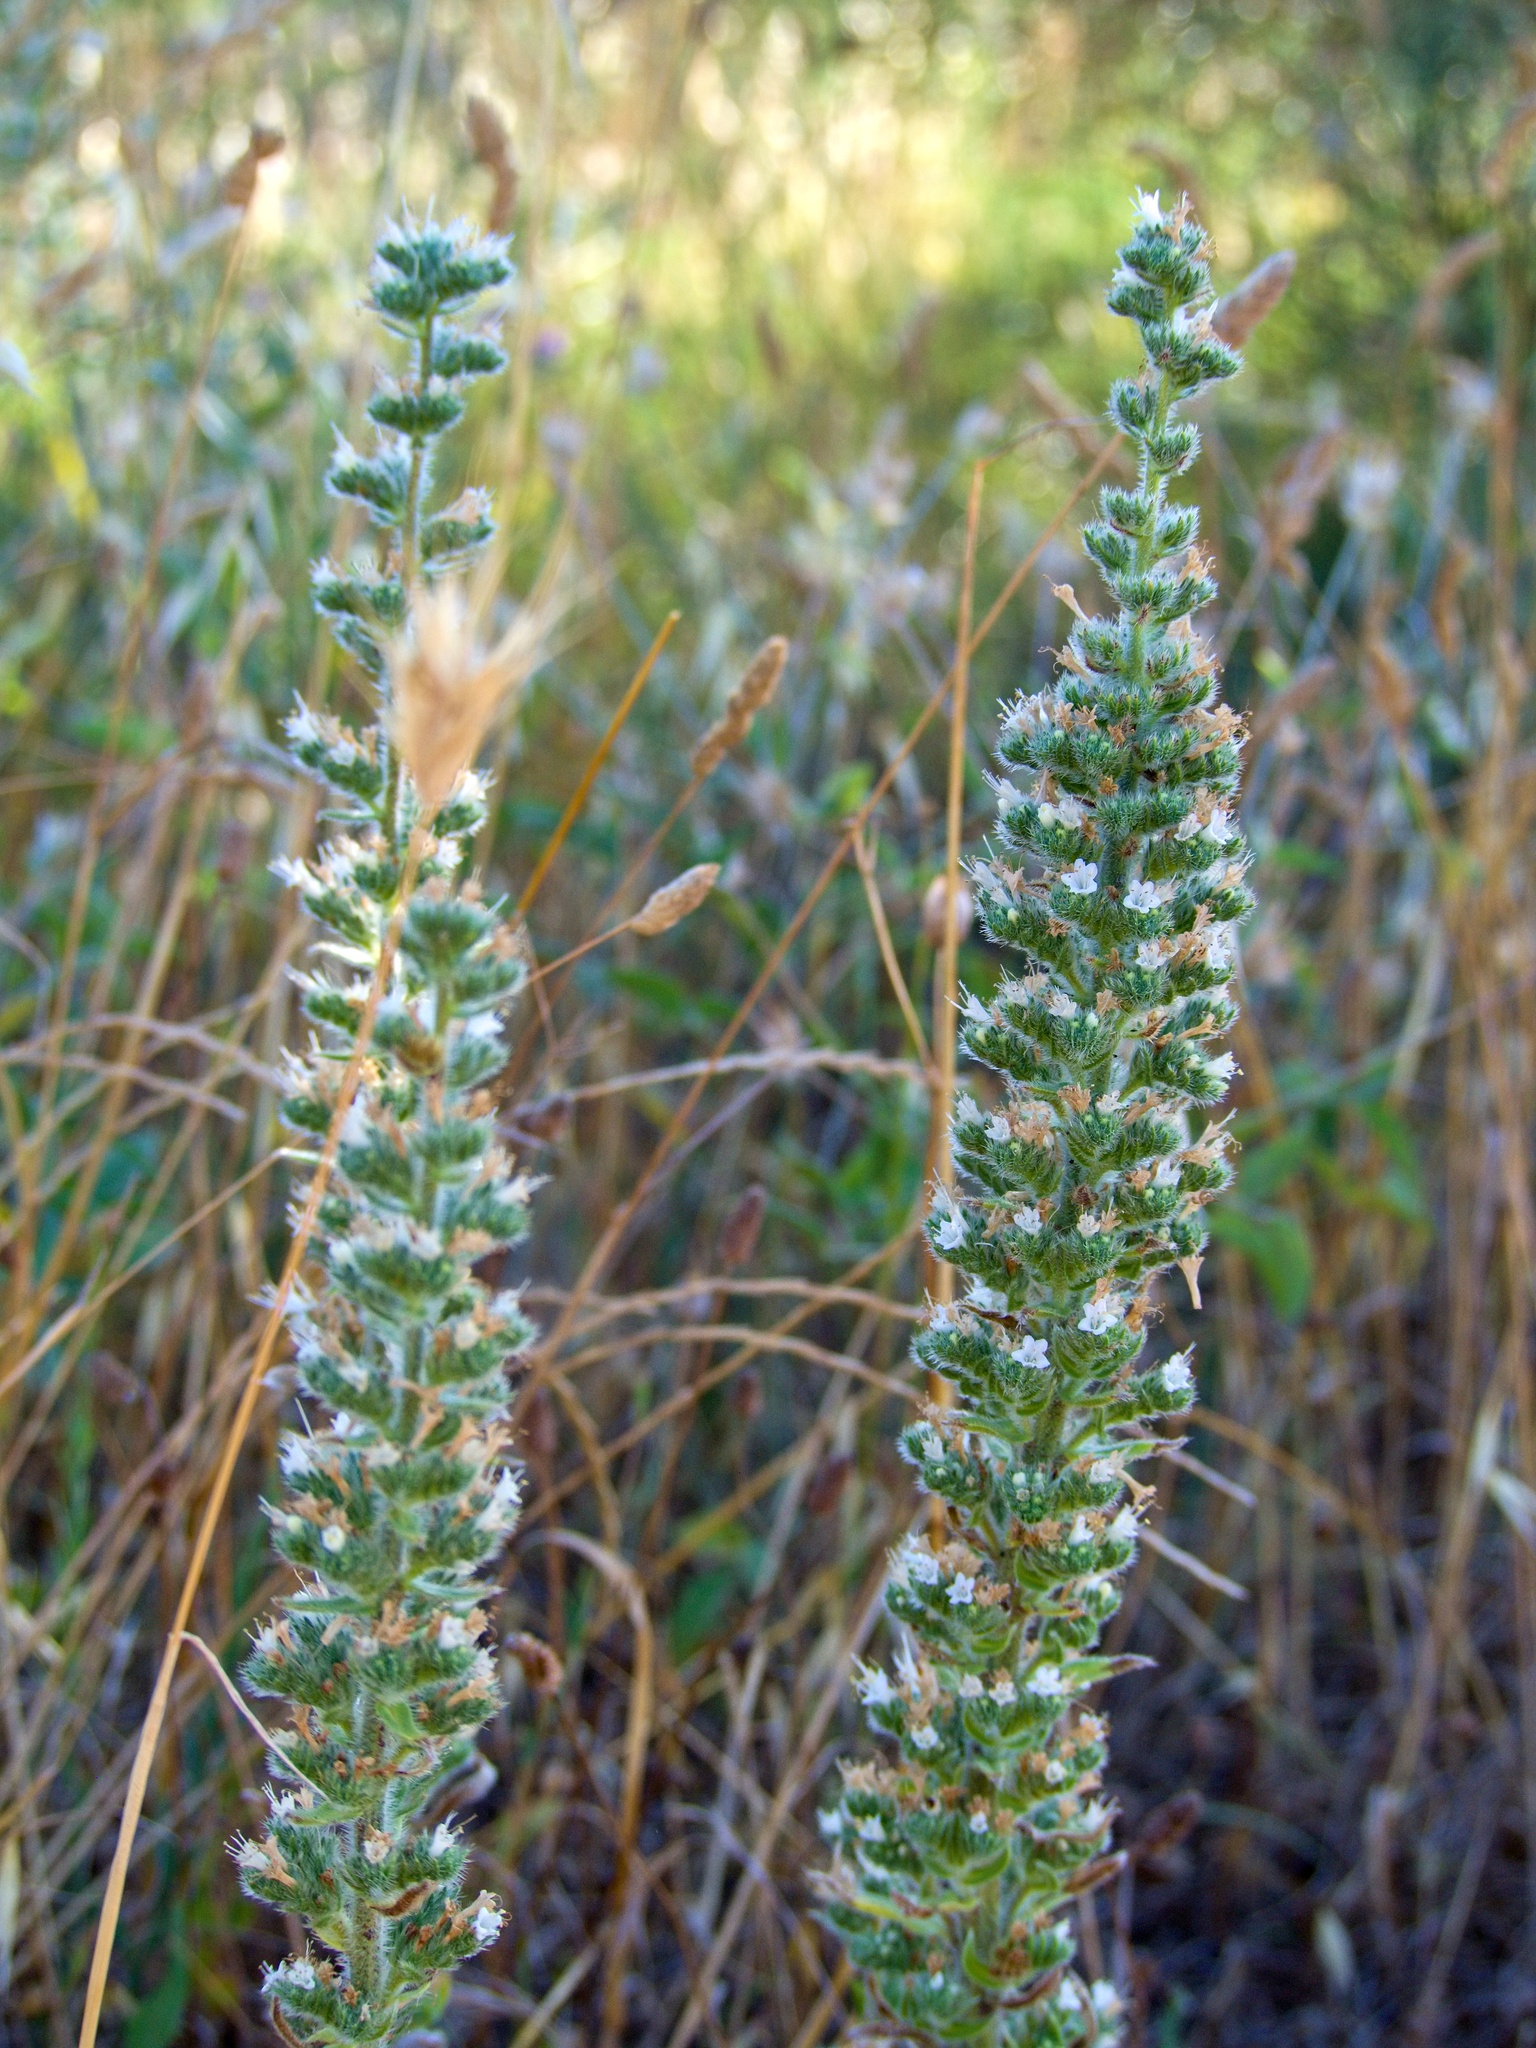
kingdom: Plantae
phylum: Tracheophyta
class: Magnoliopsida
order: Boraginales
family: Boraginaceae
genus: Echium
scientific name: Echium italicum
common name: Italian viper's bugloss
